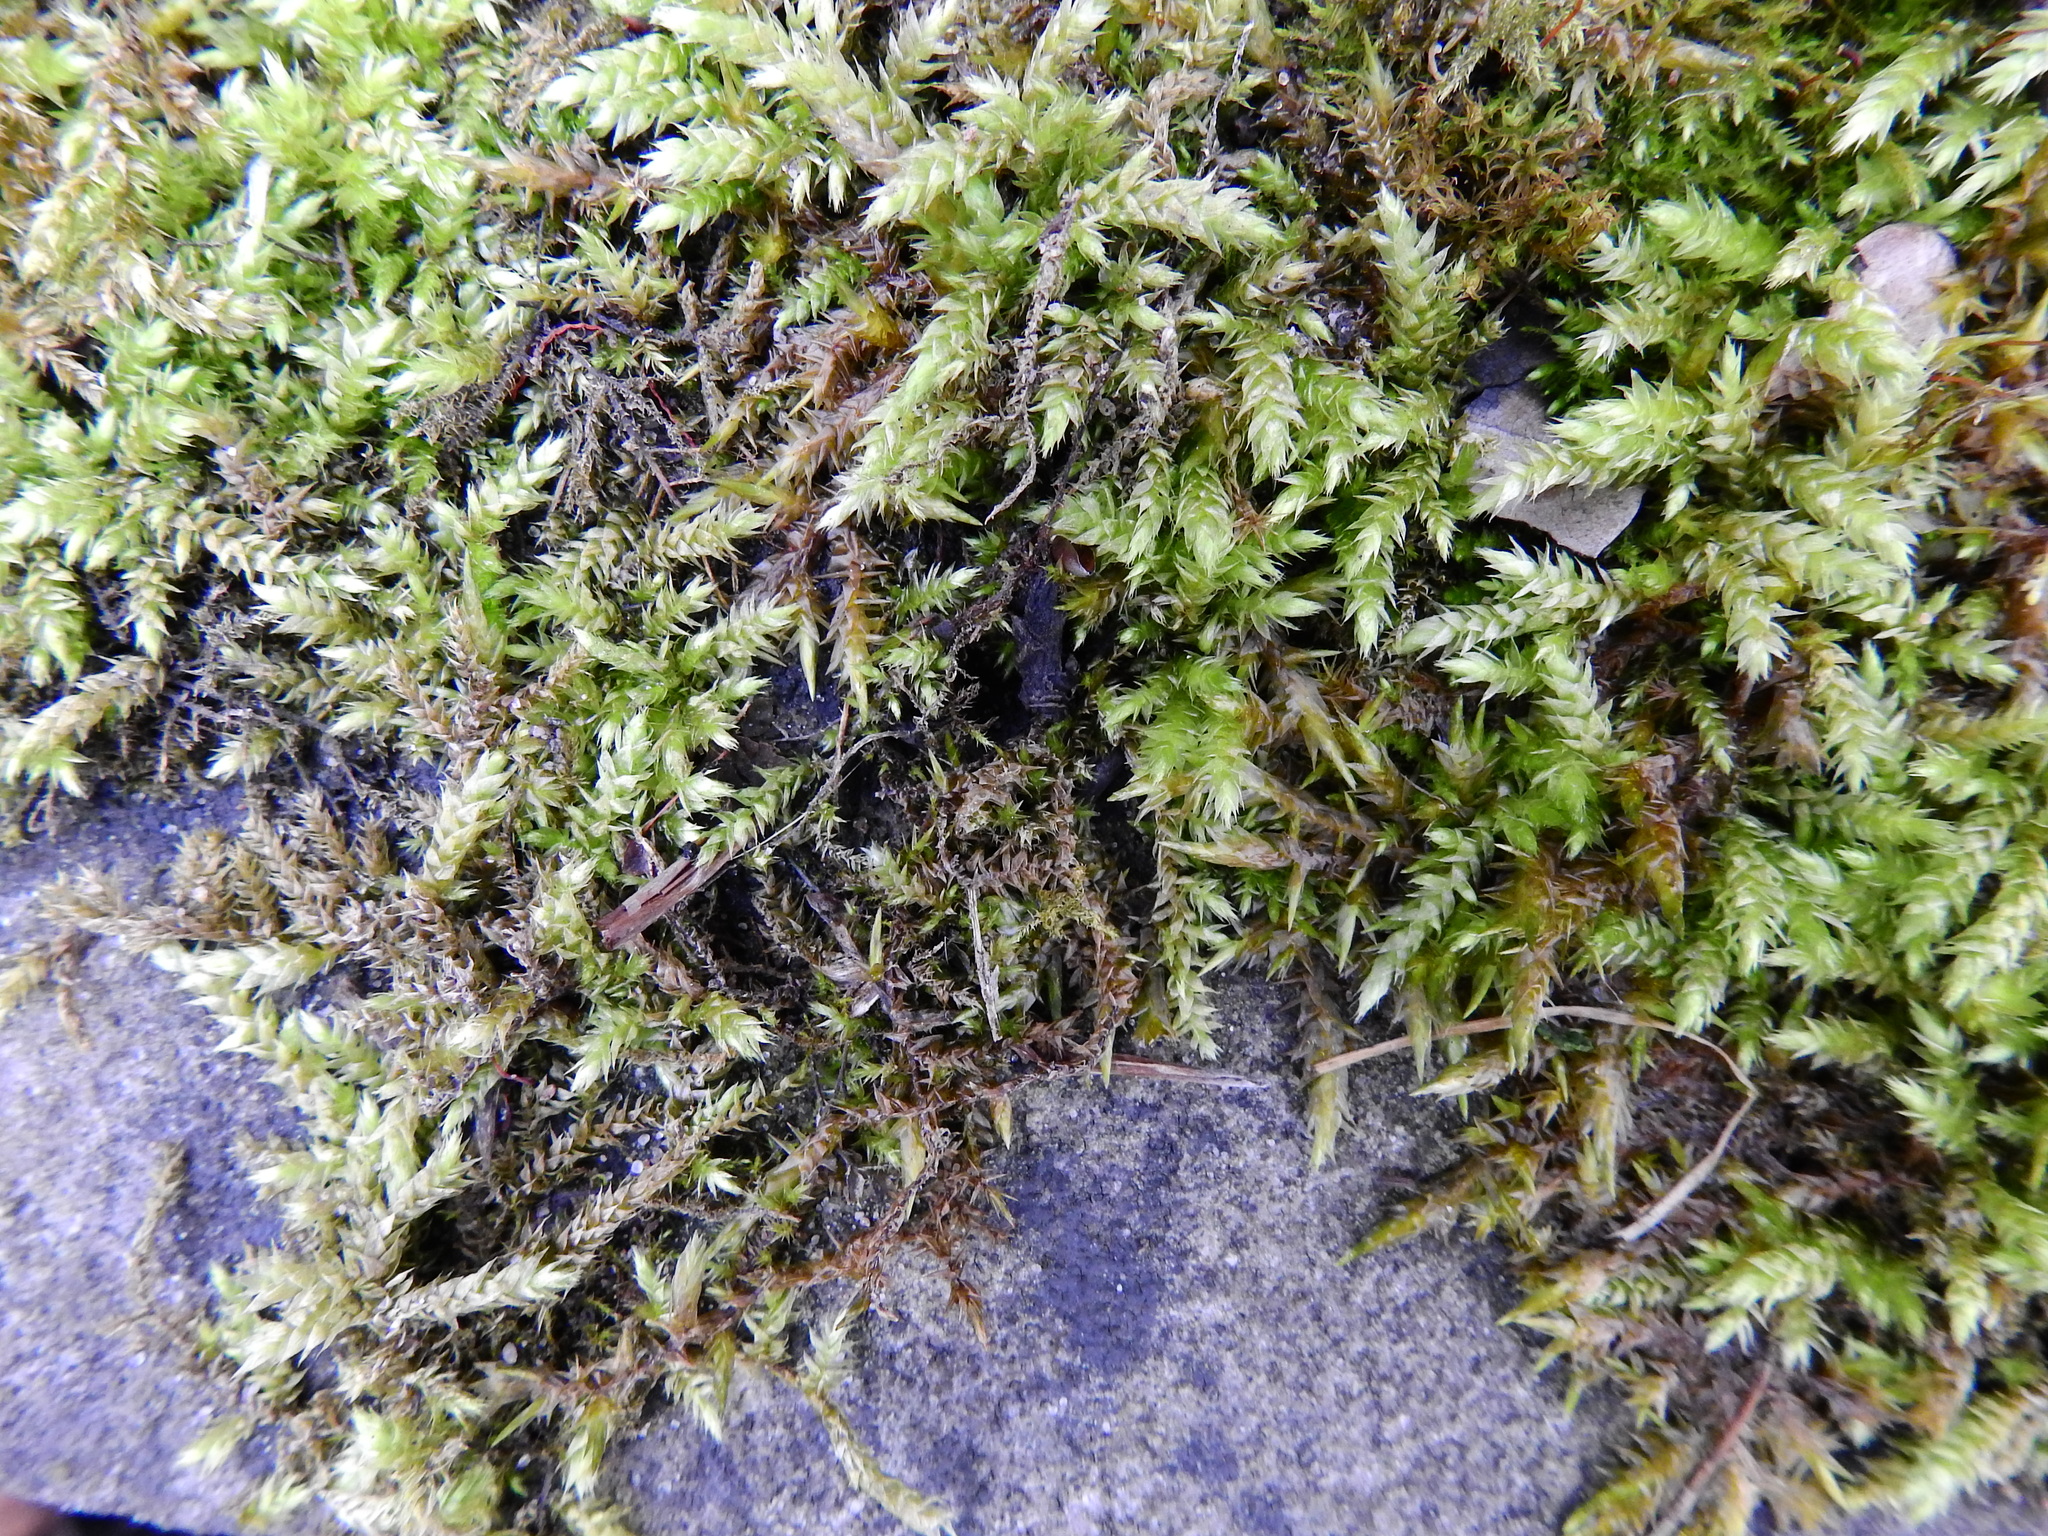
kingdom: Plantae
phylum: Bryophyta
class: Bryopsida
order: Hypnales
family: Brachytheciaceae
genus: Brachythecium
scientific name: Brachythecium rutabulum
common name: Rough-stalked feather-moss
